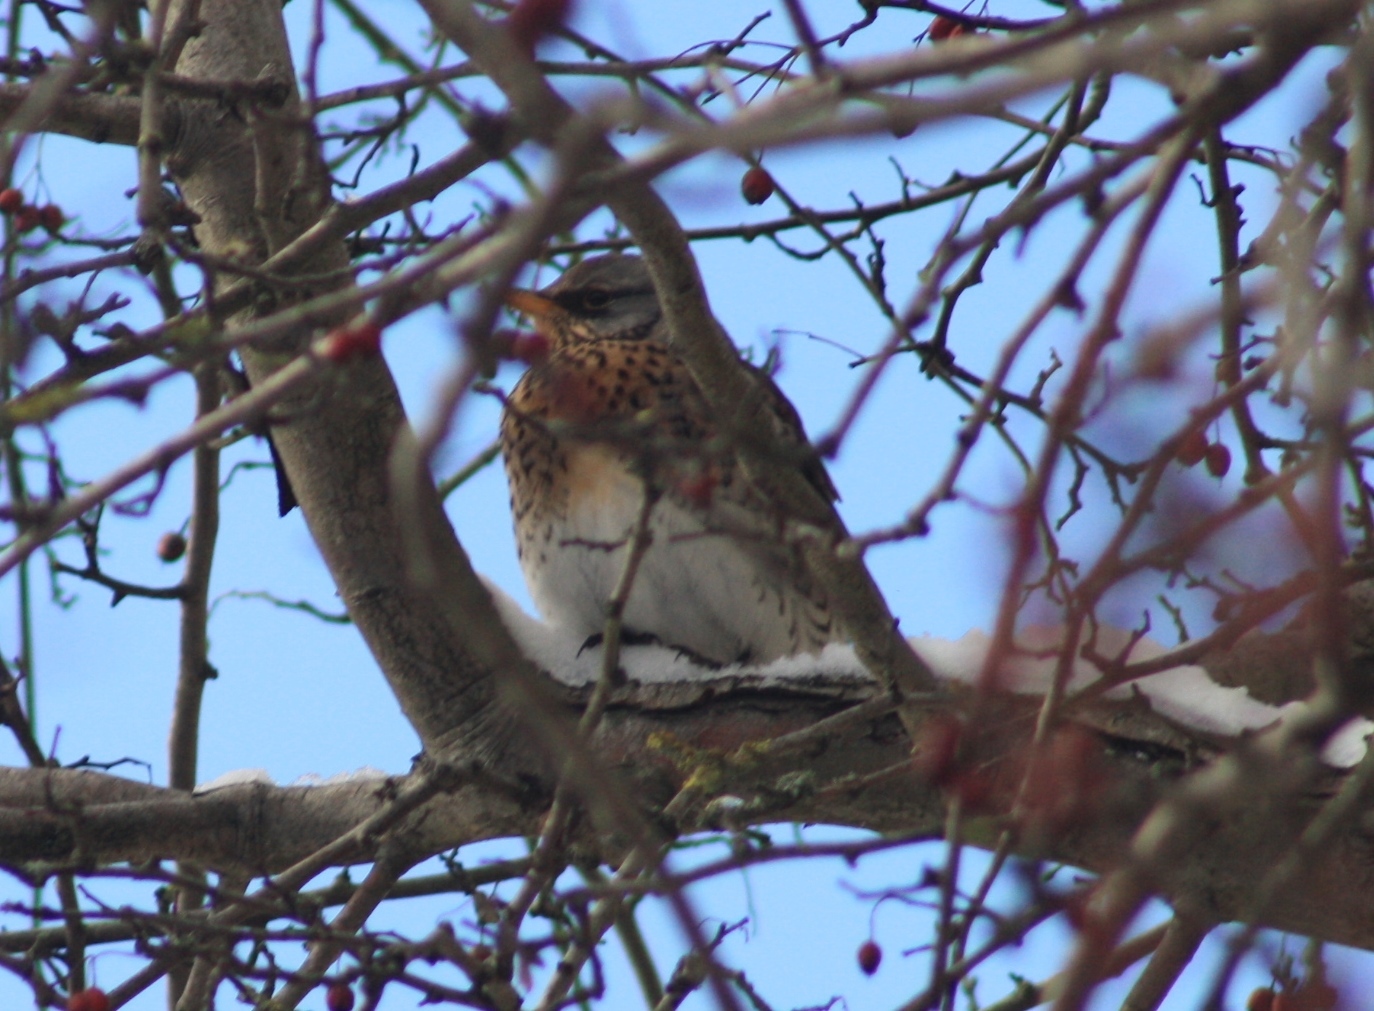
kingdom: Animalia
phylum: Chordata
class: Aves
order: Passeriformes
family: Turdidae
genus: Turdus
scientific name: Turdus pilaris
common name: Fieldfare
